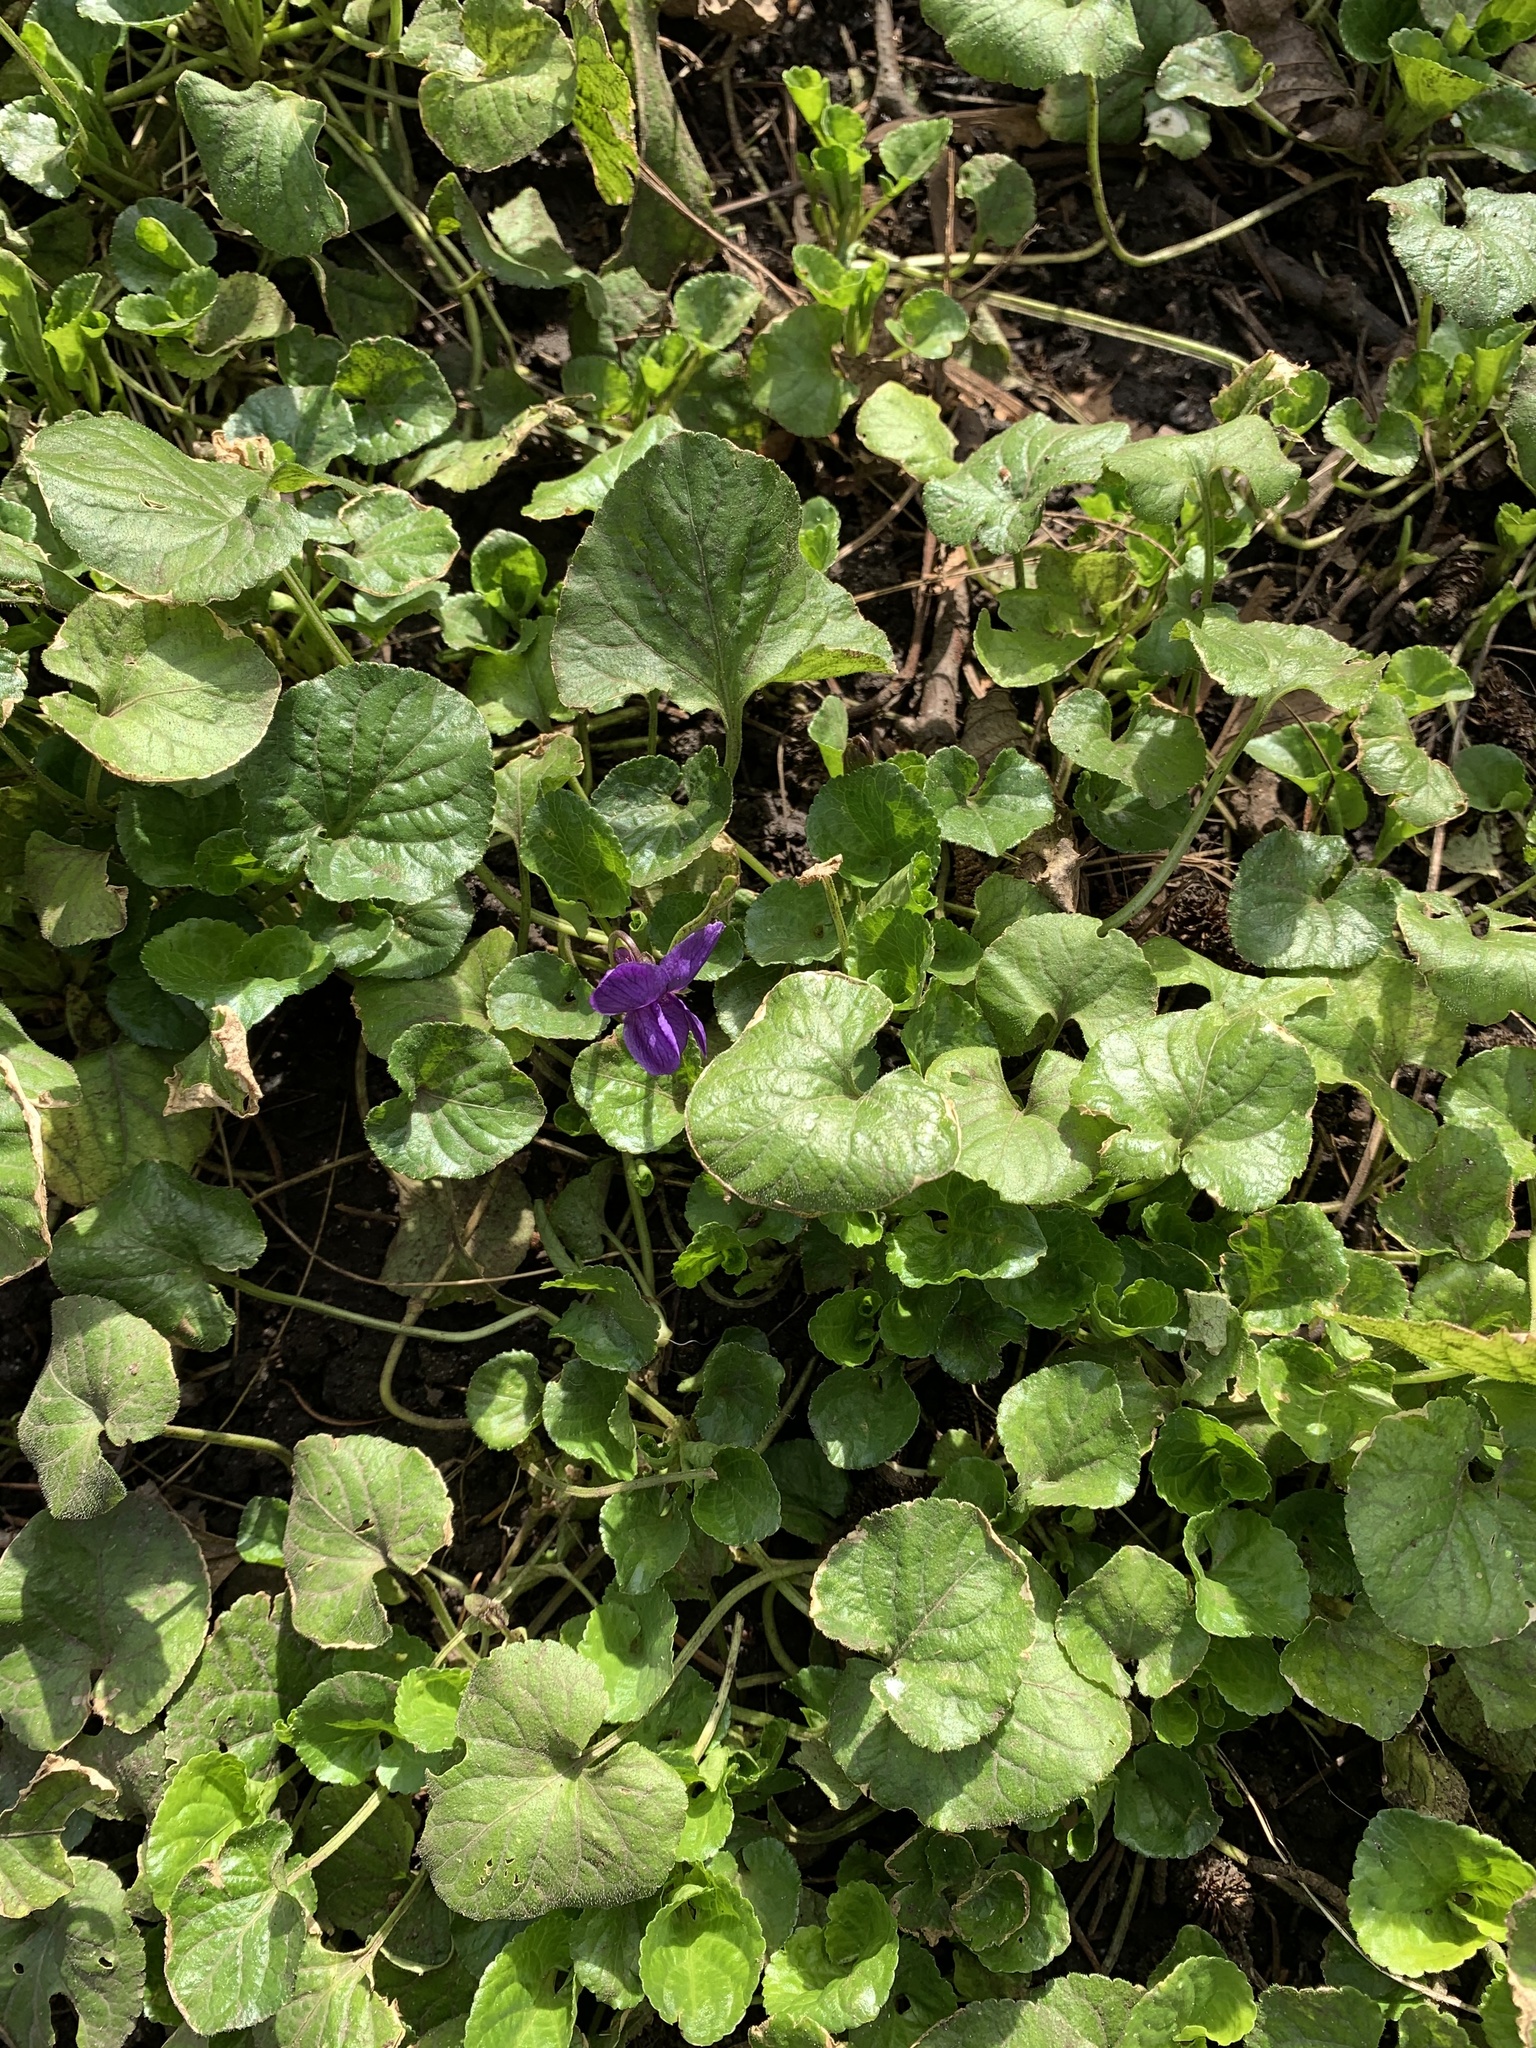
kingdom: Plantae
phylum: Tracheophyta
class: Magnoliopsida
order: Malpighiales
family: Violaceae
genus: Viola
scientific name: Viola odorata
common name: Sweet violet
